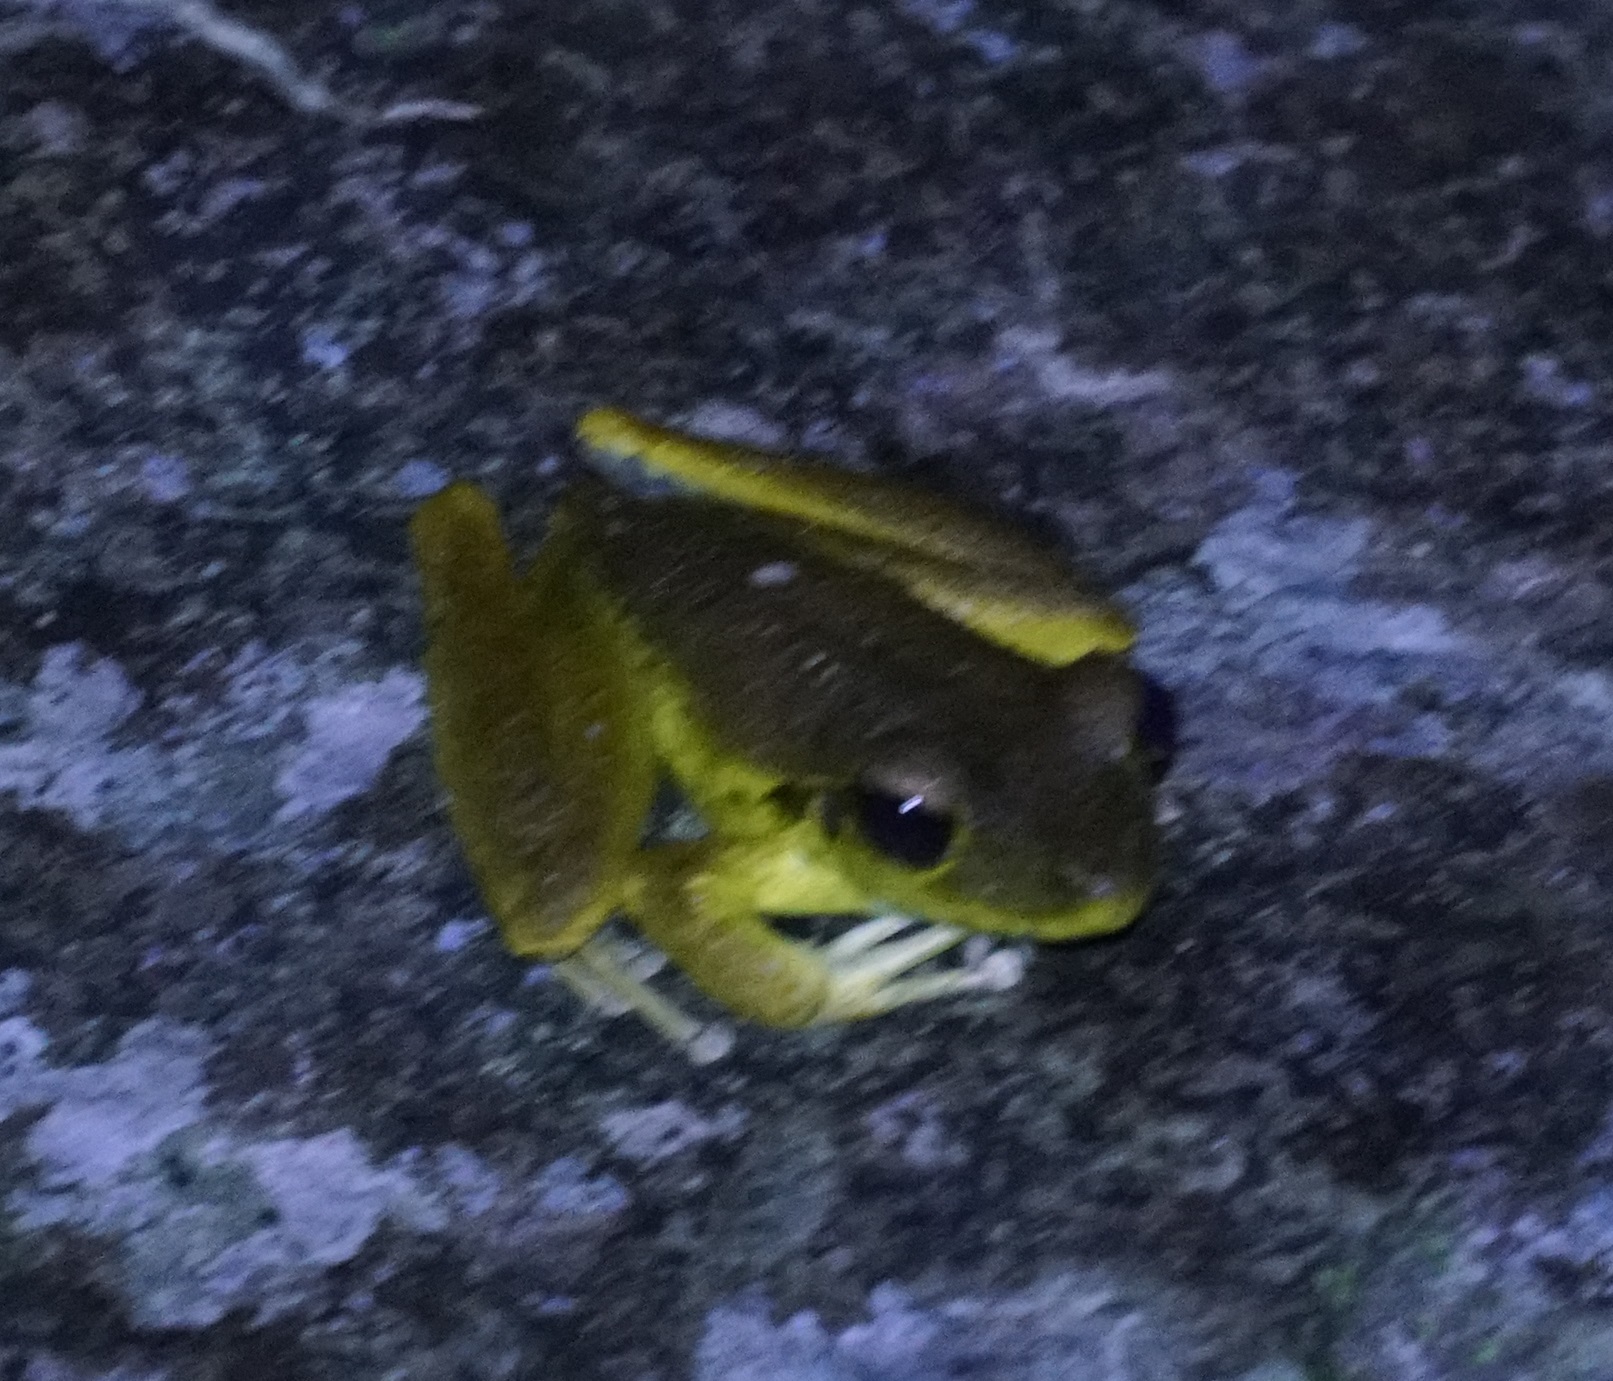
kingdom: Animalia
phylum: Chordata
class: Amphibia
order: Anura
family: Hylidae
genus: Ranoidea
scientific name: Ranoidea
